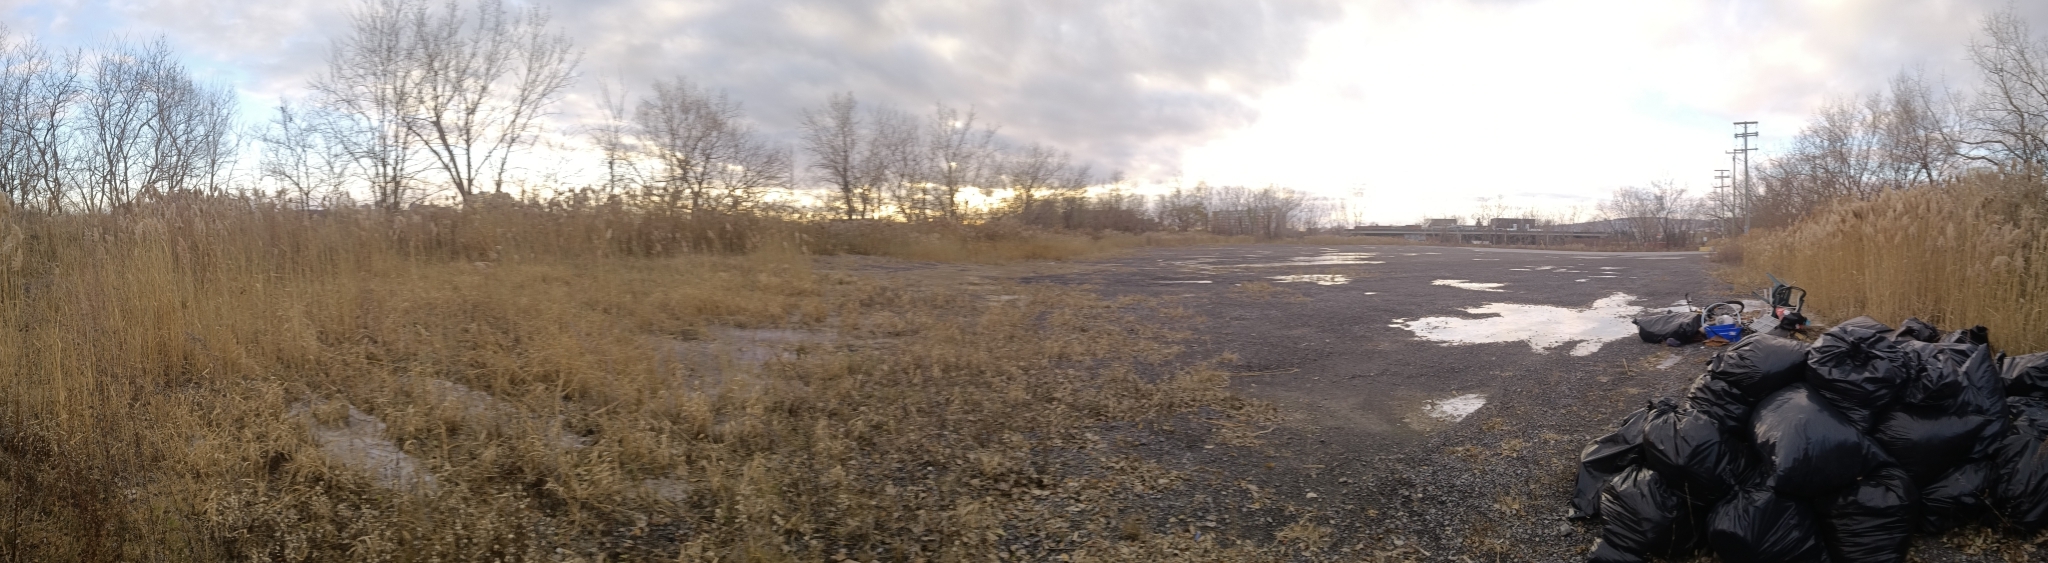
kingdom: Plantae
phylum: Tracheophyta
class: Liliopsida
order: Poales
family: Poaceae
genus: Phragmites
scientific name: Phragmites australis
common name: Common reed
